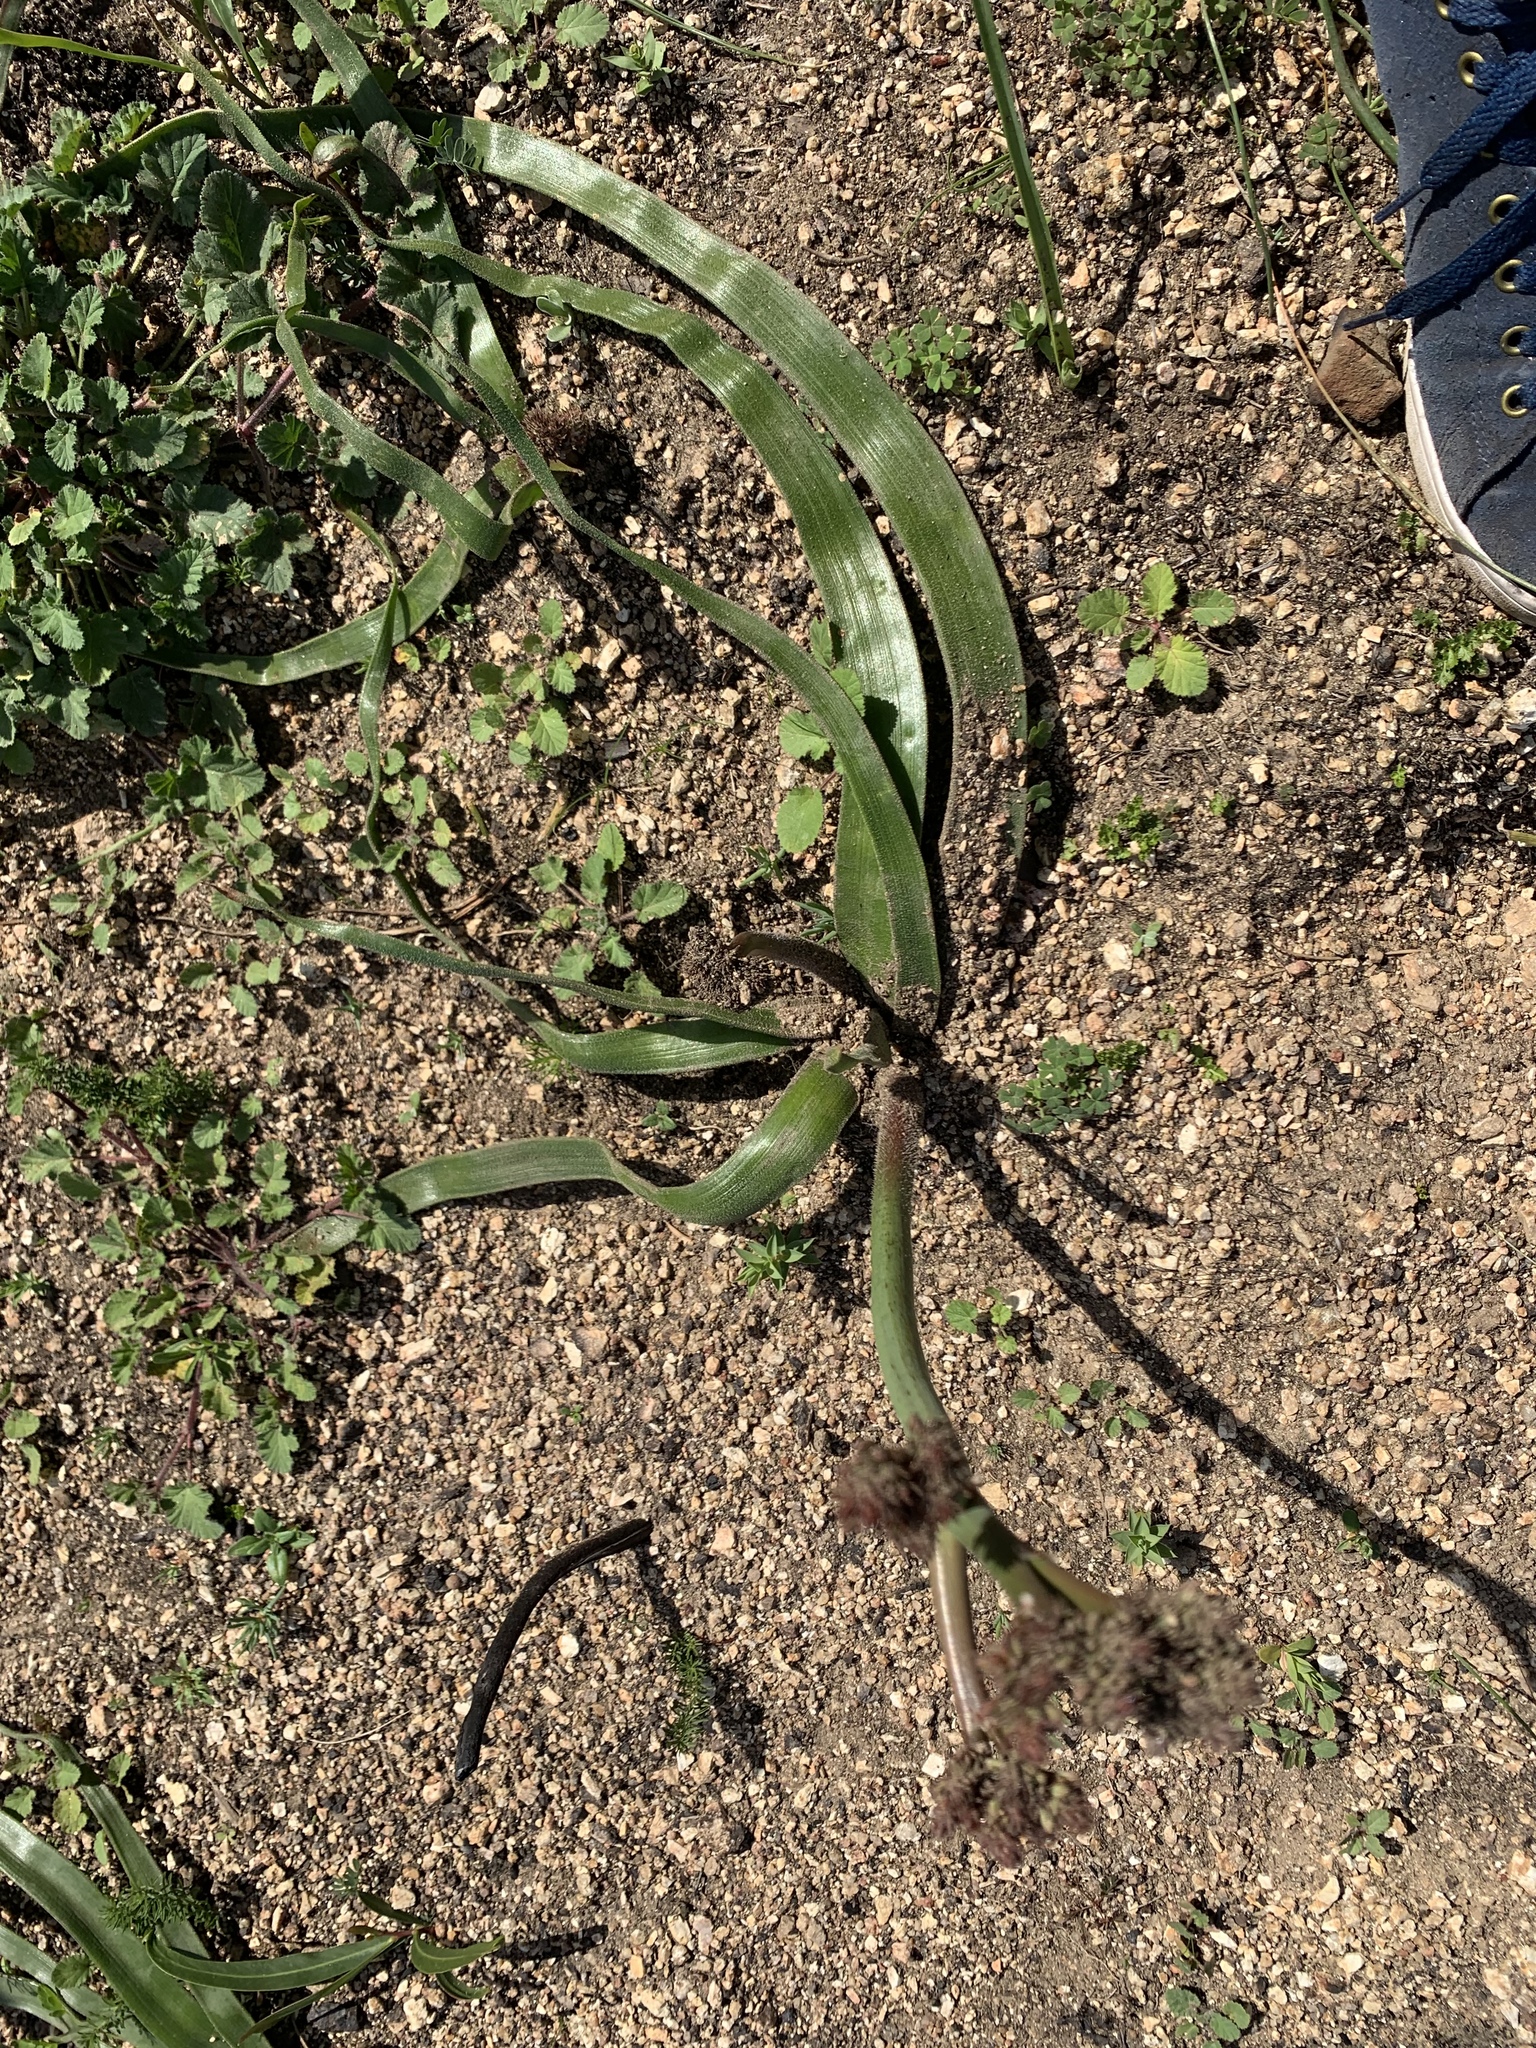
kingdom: Plantae
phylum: Tracheophyta
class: Liliopsida
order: Asparagales
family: Asphodelaceae
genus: Trachyandra
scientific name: Trachyandra muricata
